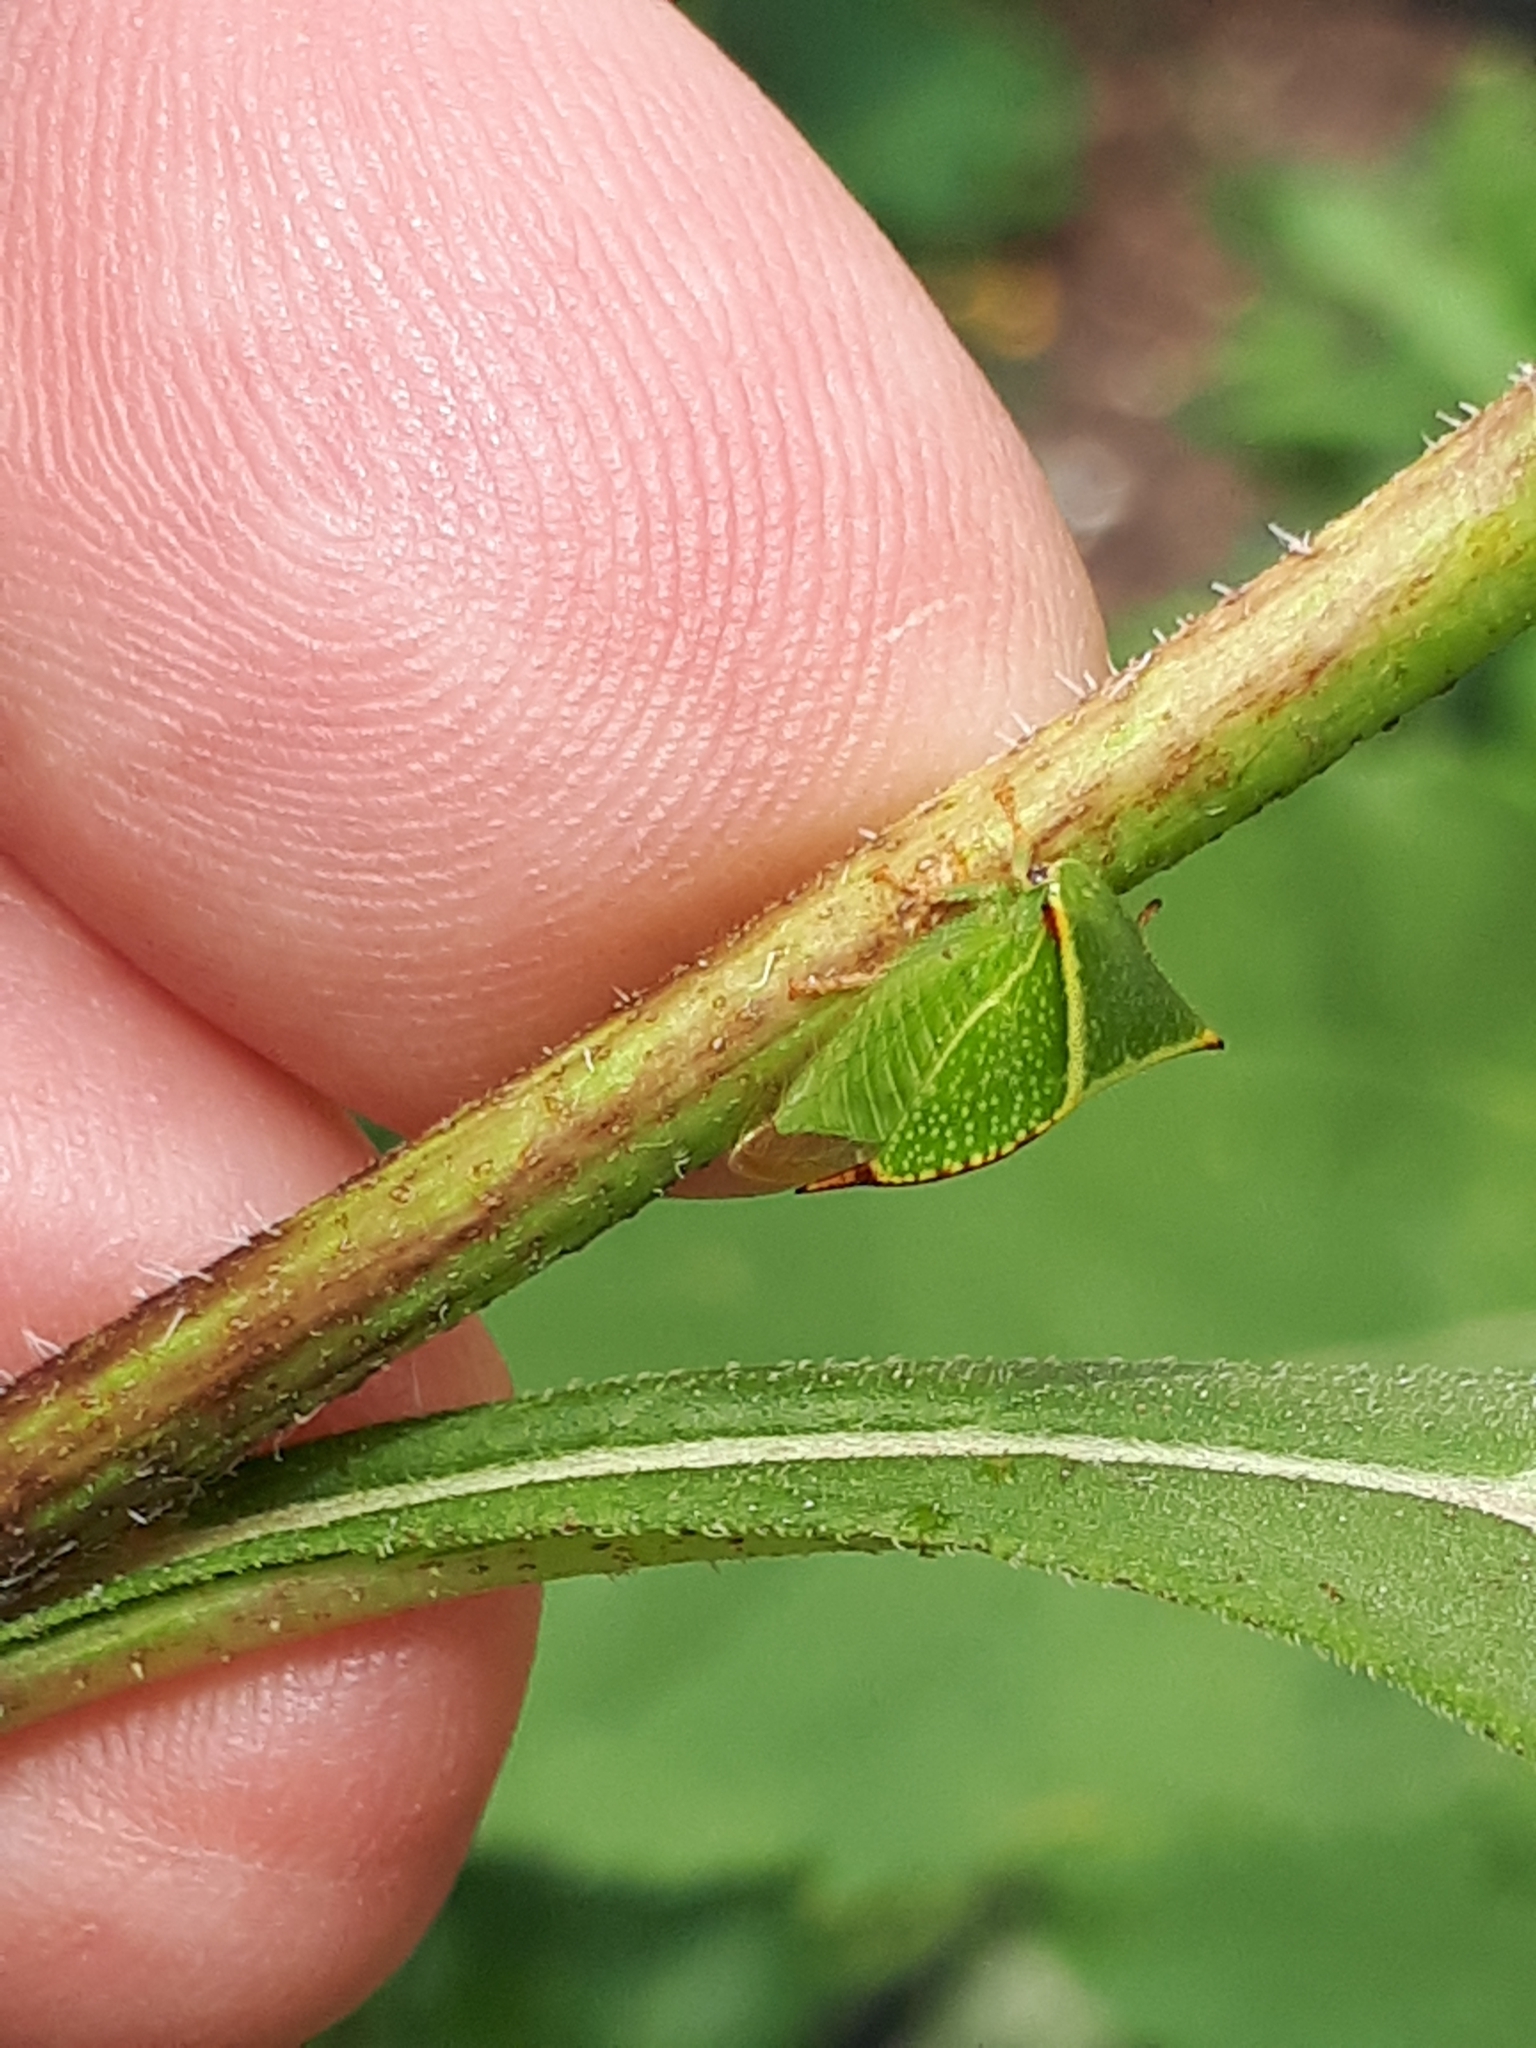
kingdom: Animalia
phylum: Arthropoda
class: Insecta
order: Hemiptera
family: Membracidae
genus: Stictocephala
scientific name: Stictocephala bisonia
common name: American buffalo treehopper
